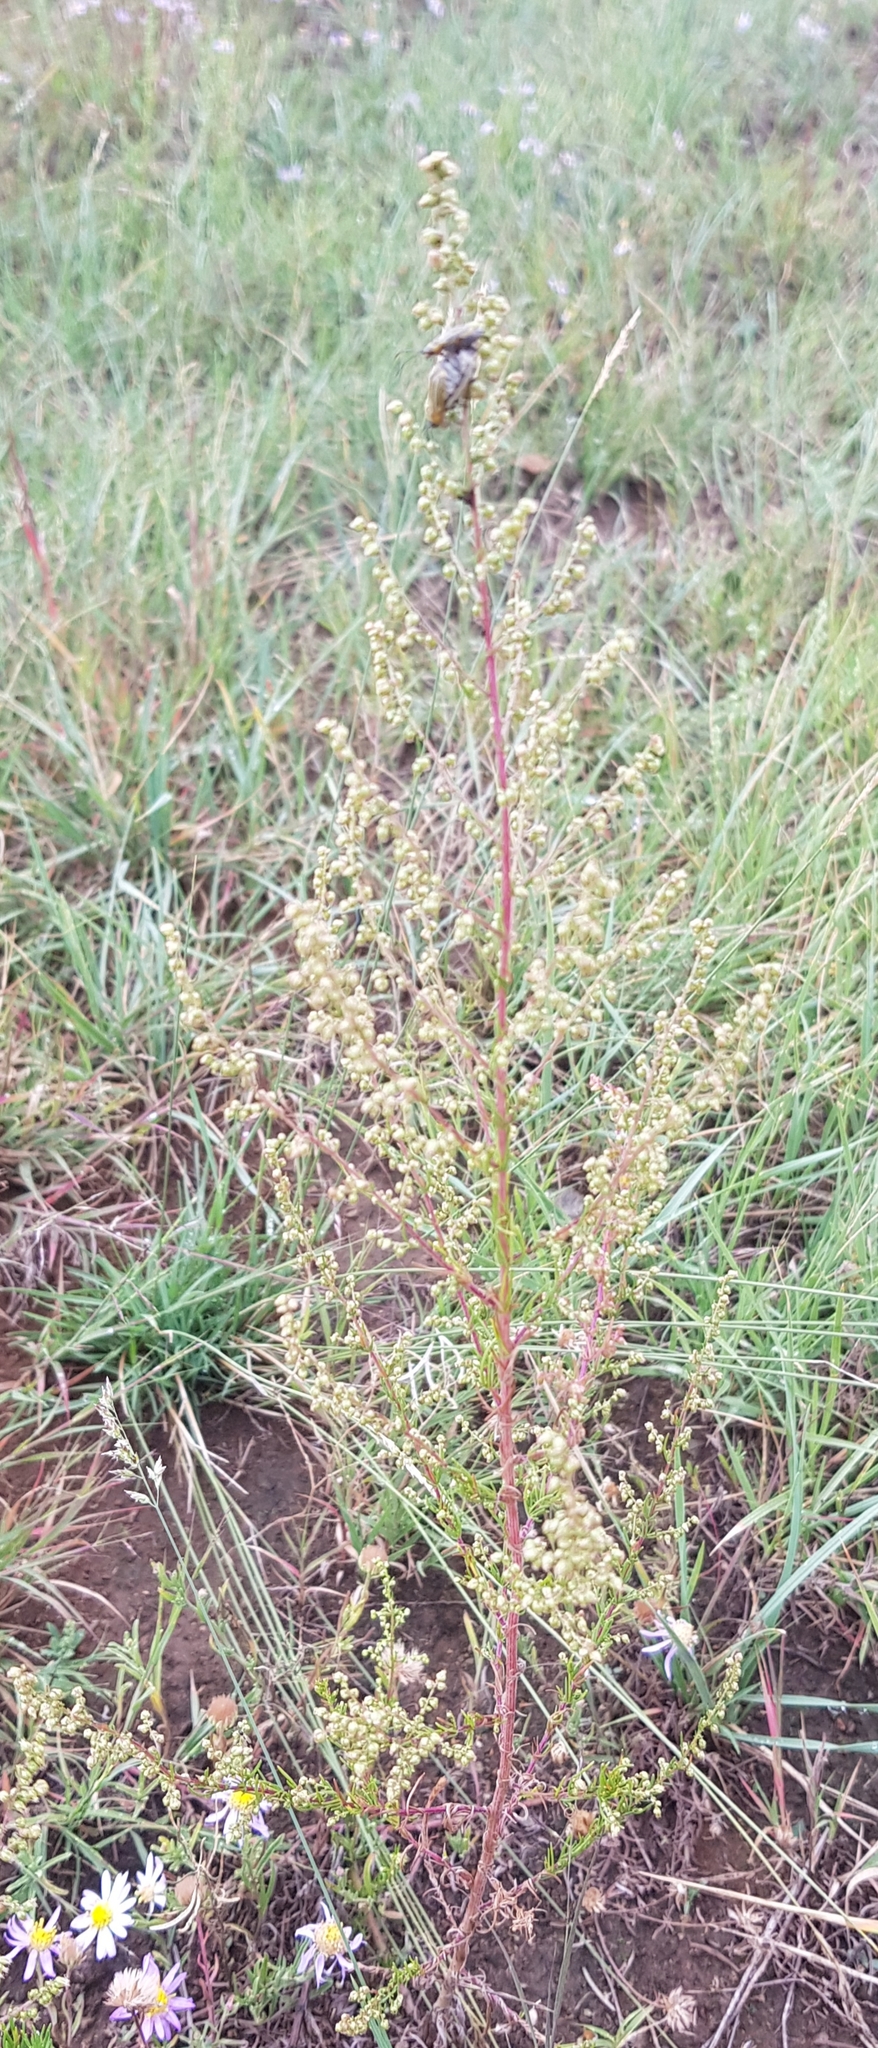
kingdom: Plantae
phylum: Tracheophyta
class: Magnoliopsida
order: Asterales
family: Asteraceae
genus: Artemisia
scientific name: Artemisia scoparia
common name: Redstem wormwood
